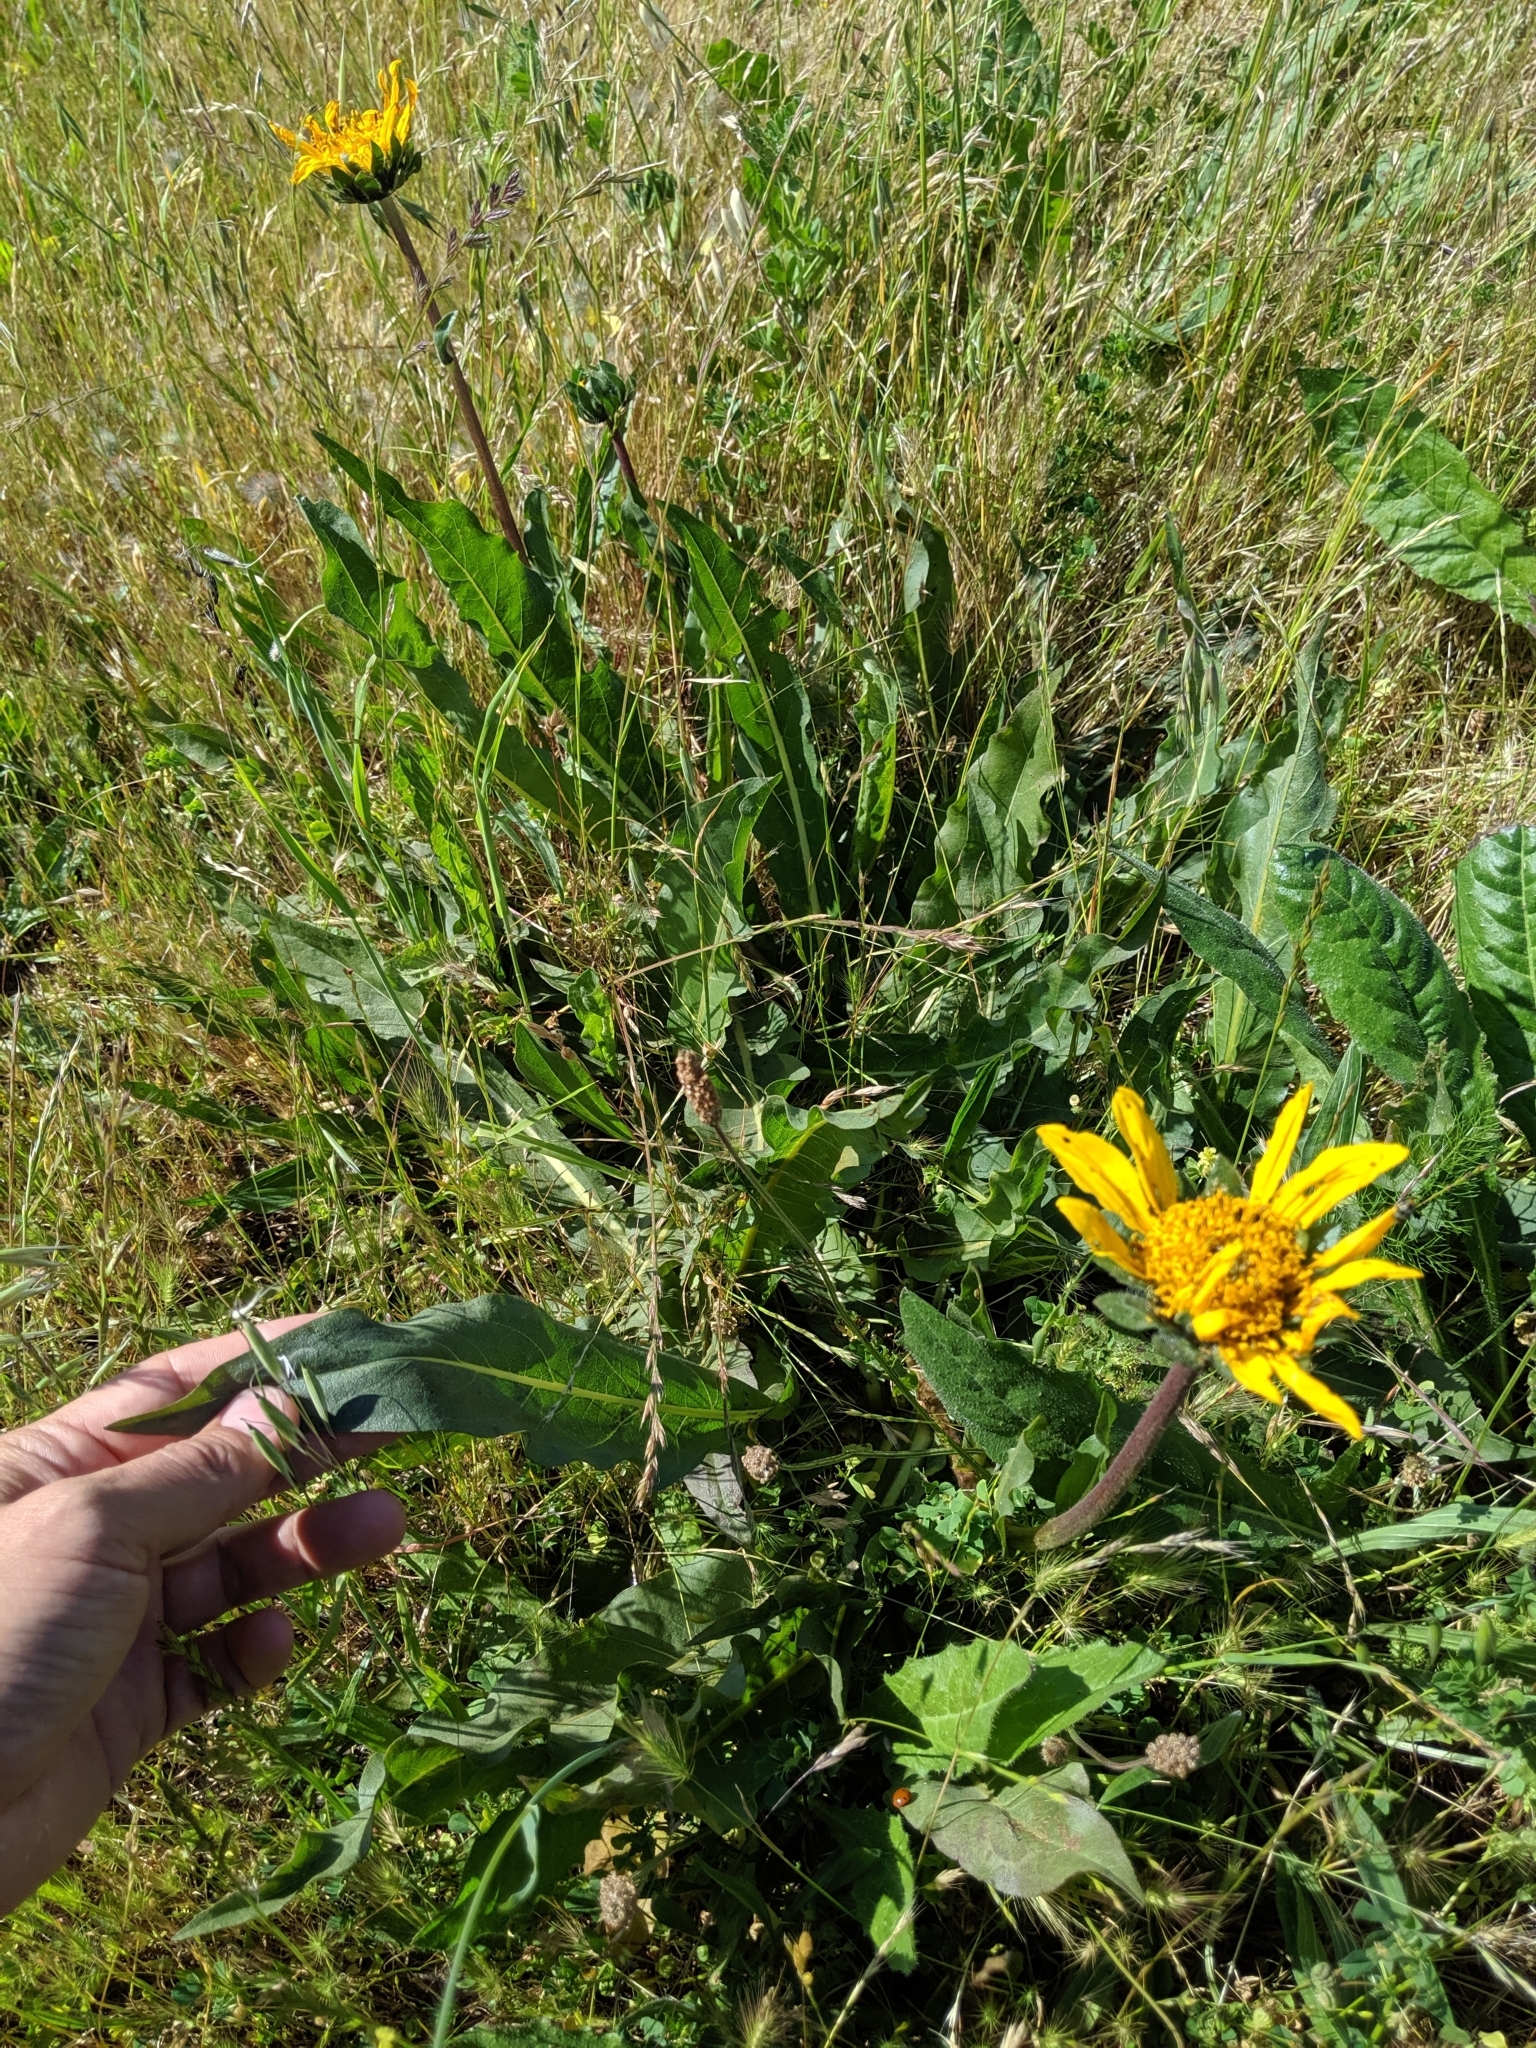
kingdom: Plantae
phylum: Tracheophyta
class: Magnoliopsida
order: Asterales
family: Asteraceae
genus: Wyethia
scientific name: Wyethia angustifolia
